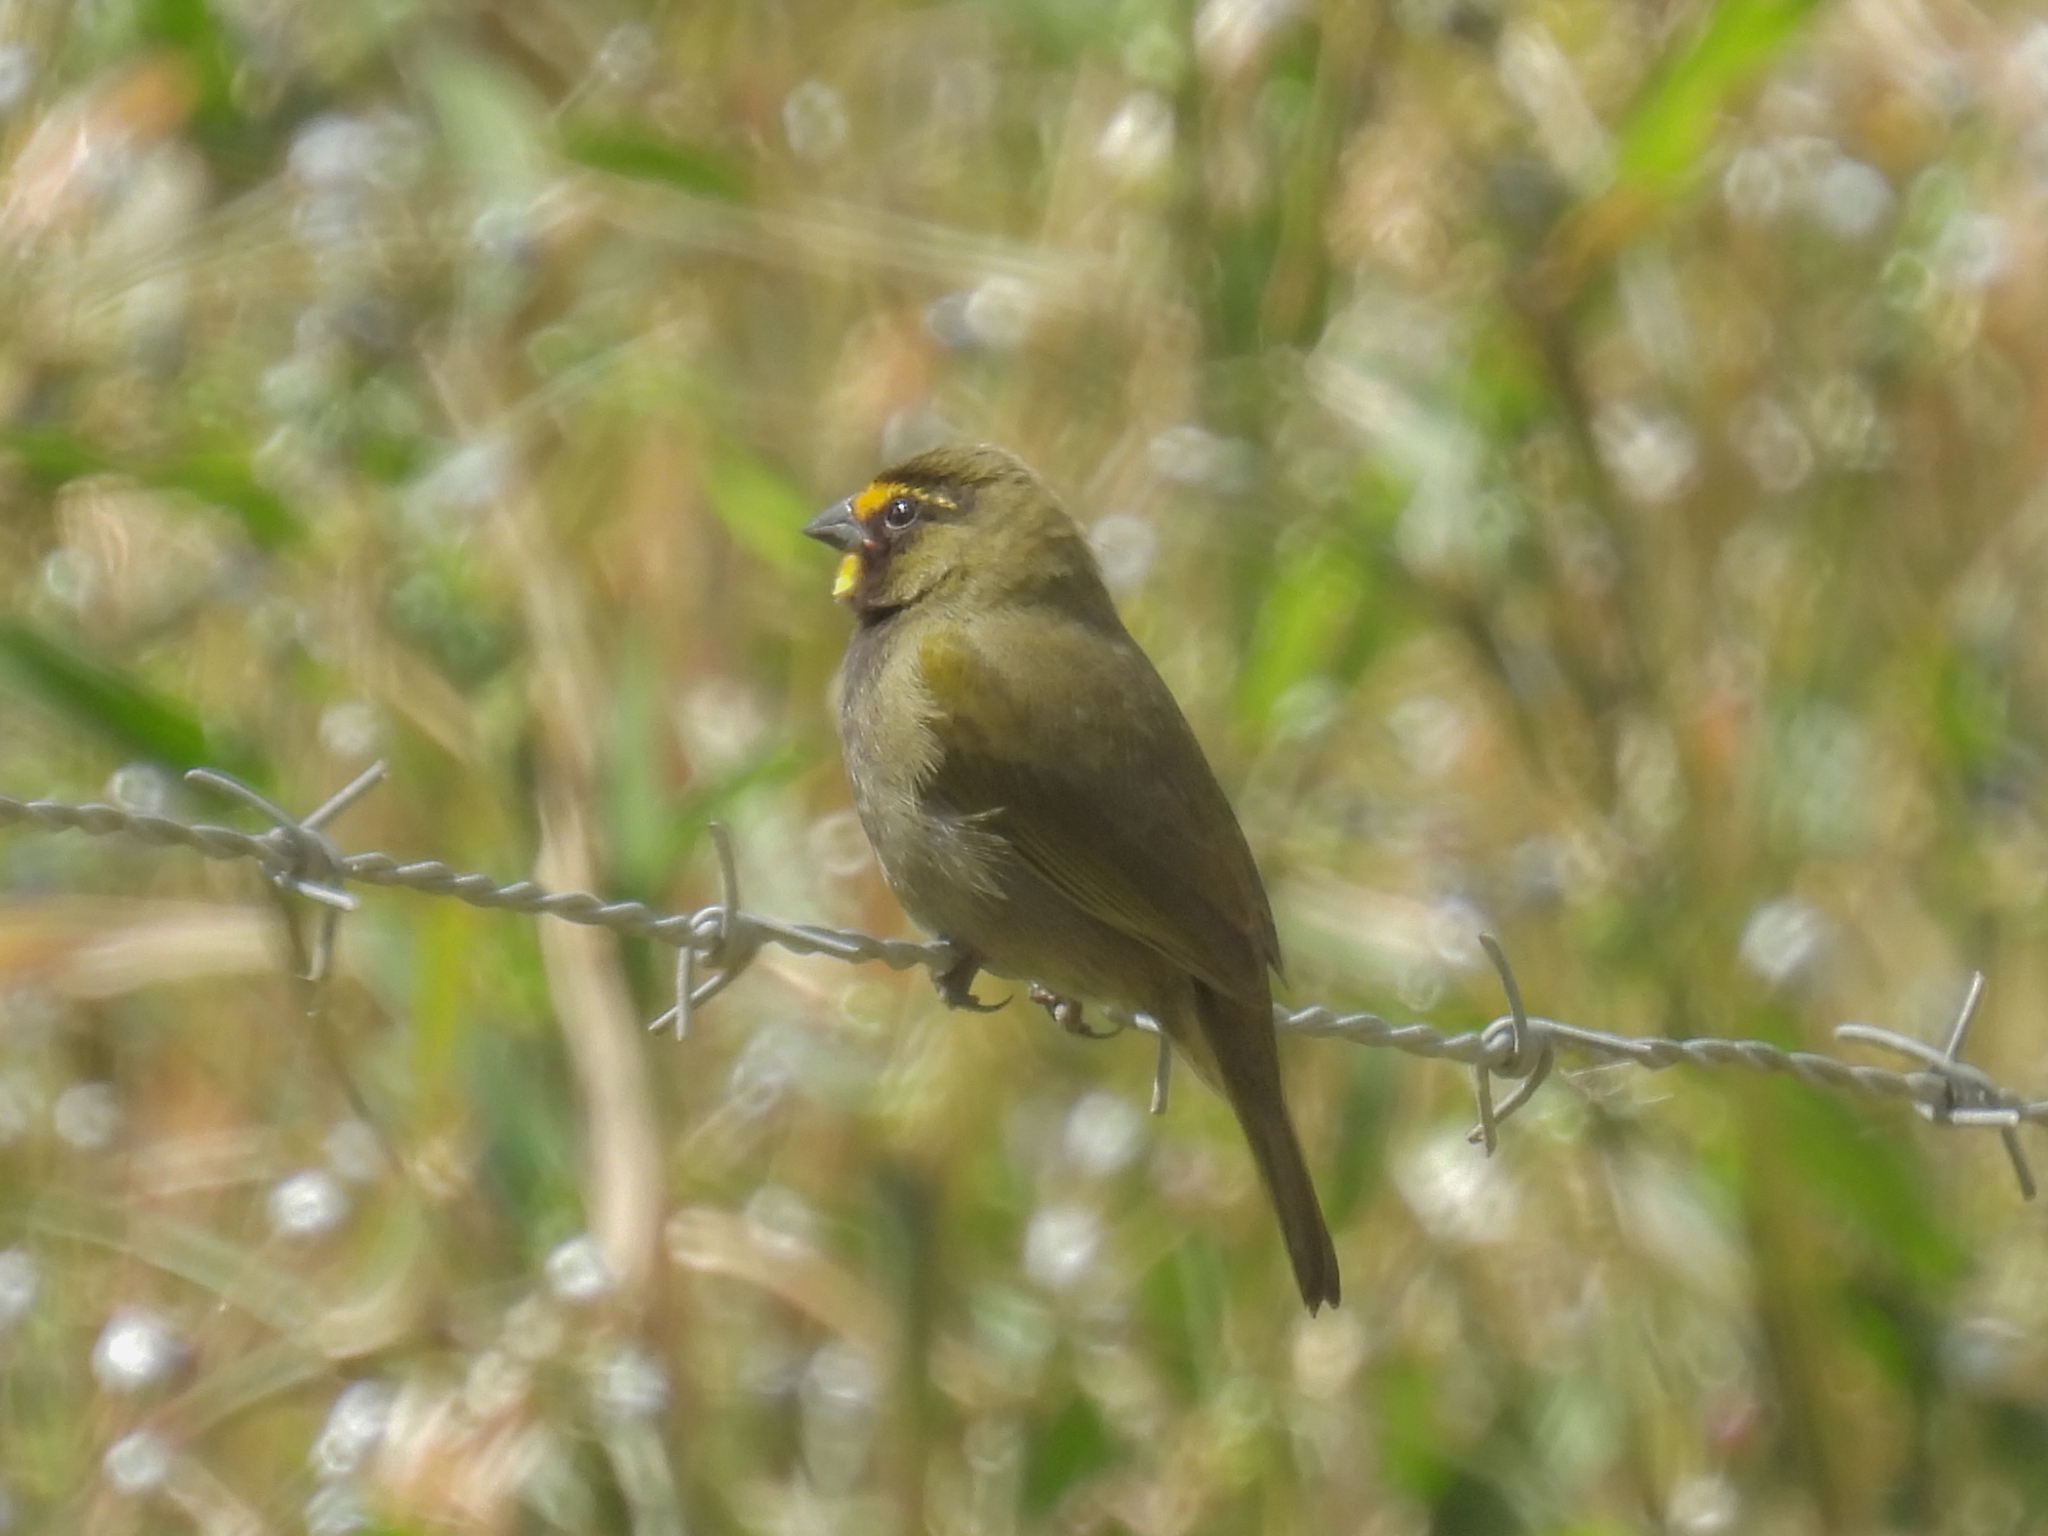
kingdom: Animalia
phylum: Chordata
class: Aves
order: Passeriformes
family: Thraupidae
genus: Tiaris
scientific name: Tiaris olivaceus
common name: Yellow-faced grassquit
